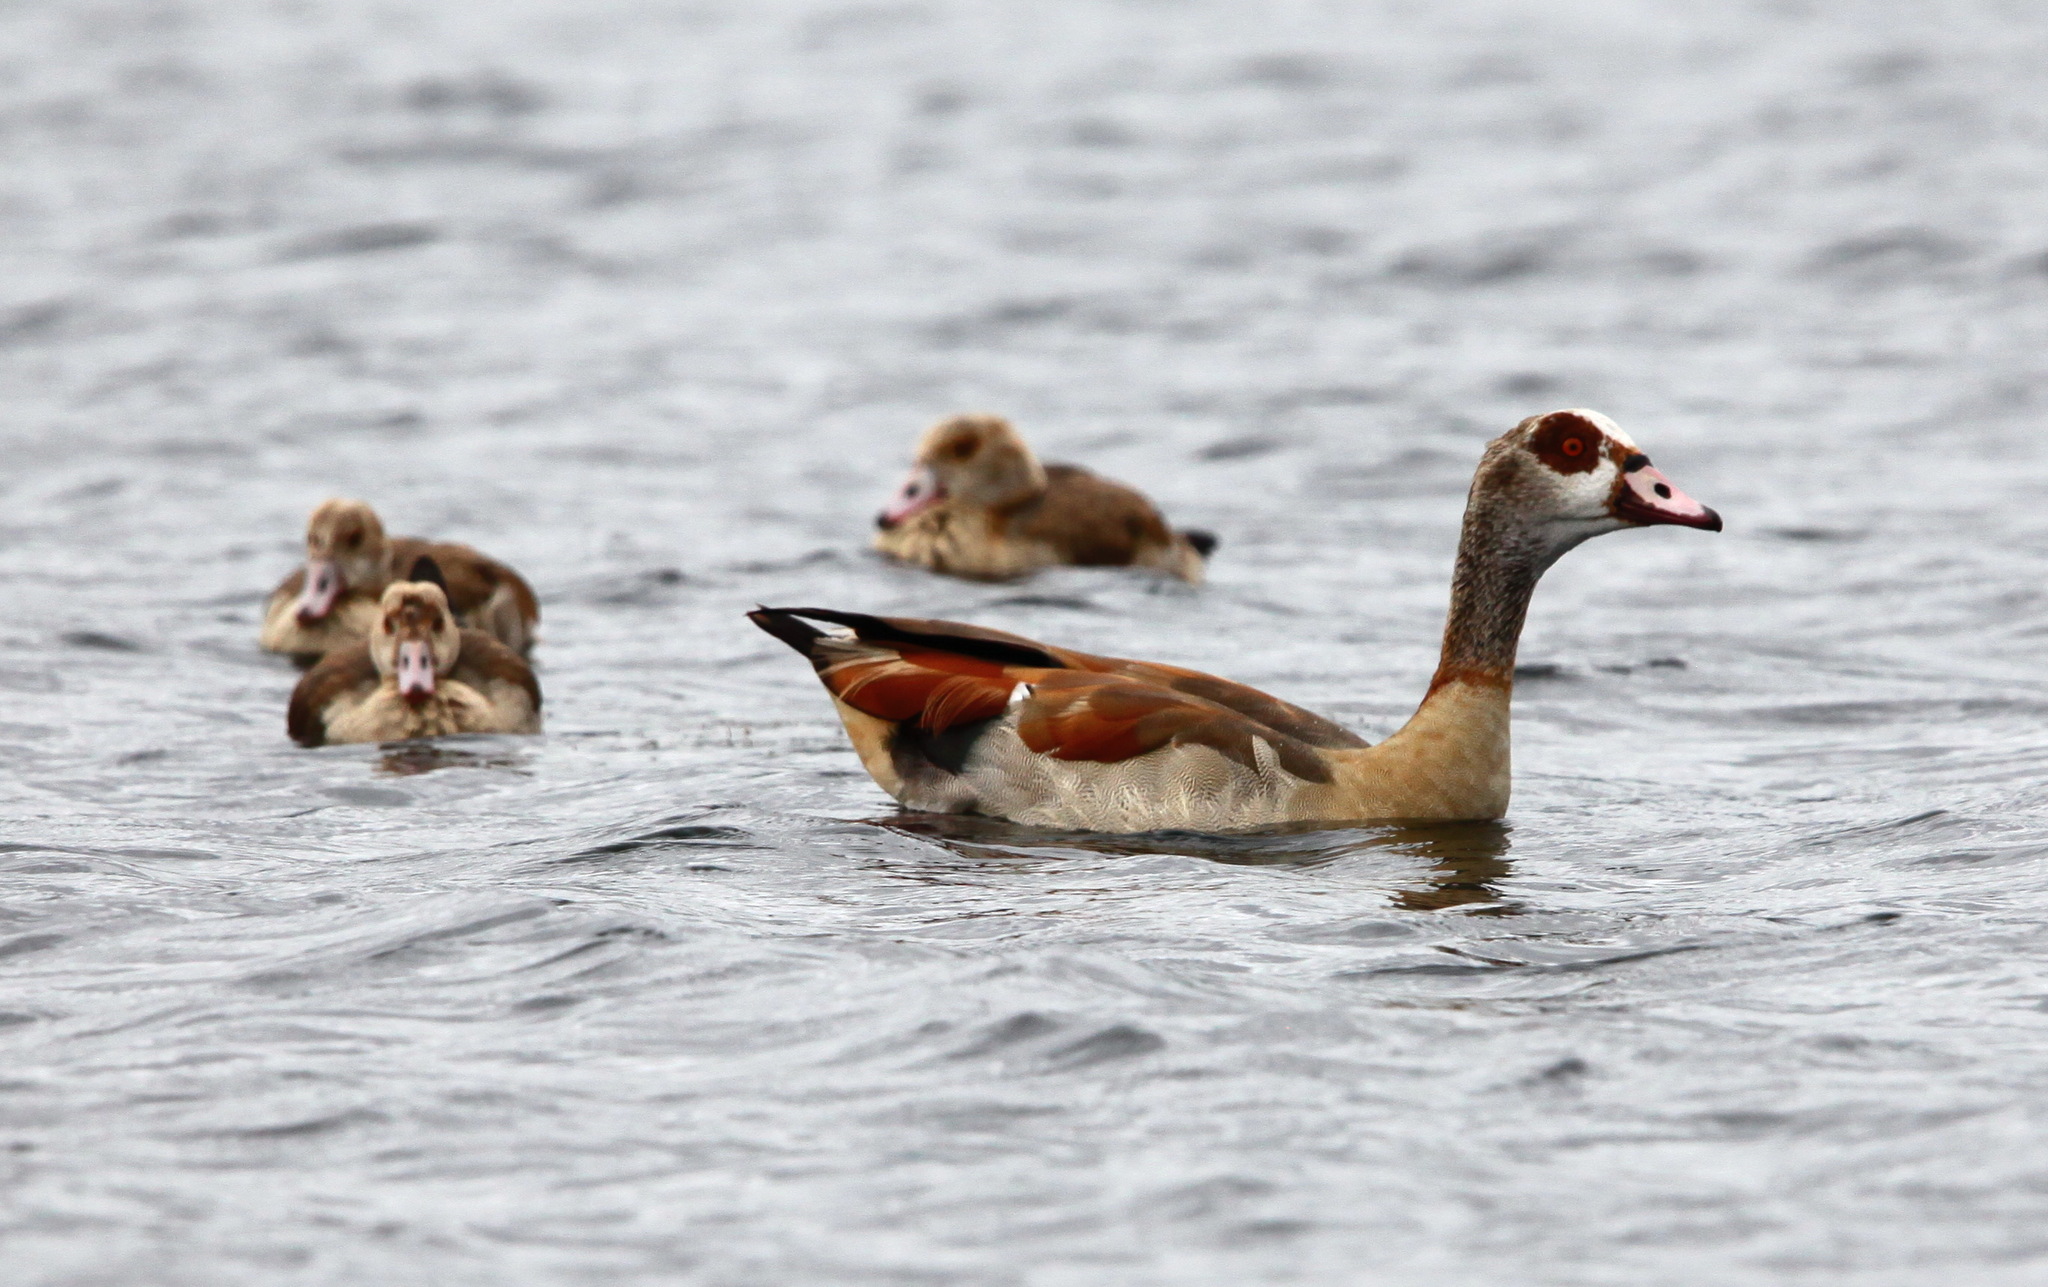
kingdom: Animalia
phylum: Chordata
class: Aves
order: Anseriformes
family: Anatidae
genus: Alopochen
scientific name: Alopochen aegyptiaca
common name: Egyptian goose
